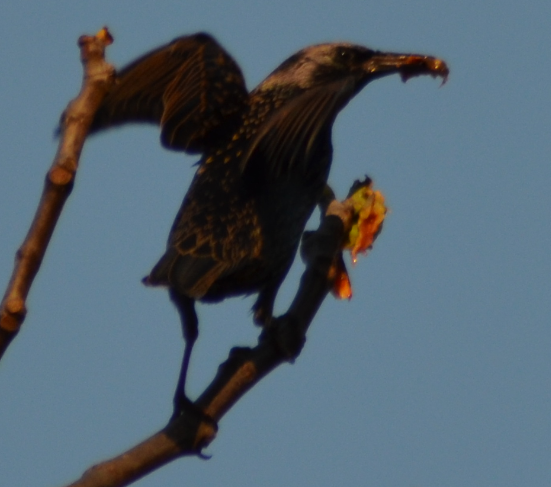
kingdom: Animalia
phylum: Chordata
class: Aves
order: Passeriformes
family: Sturnidae
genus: Sturnus
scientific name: Sturnus vulgaris
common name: Common starling
